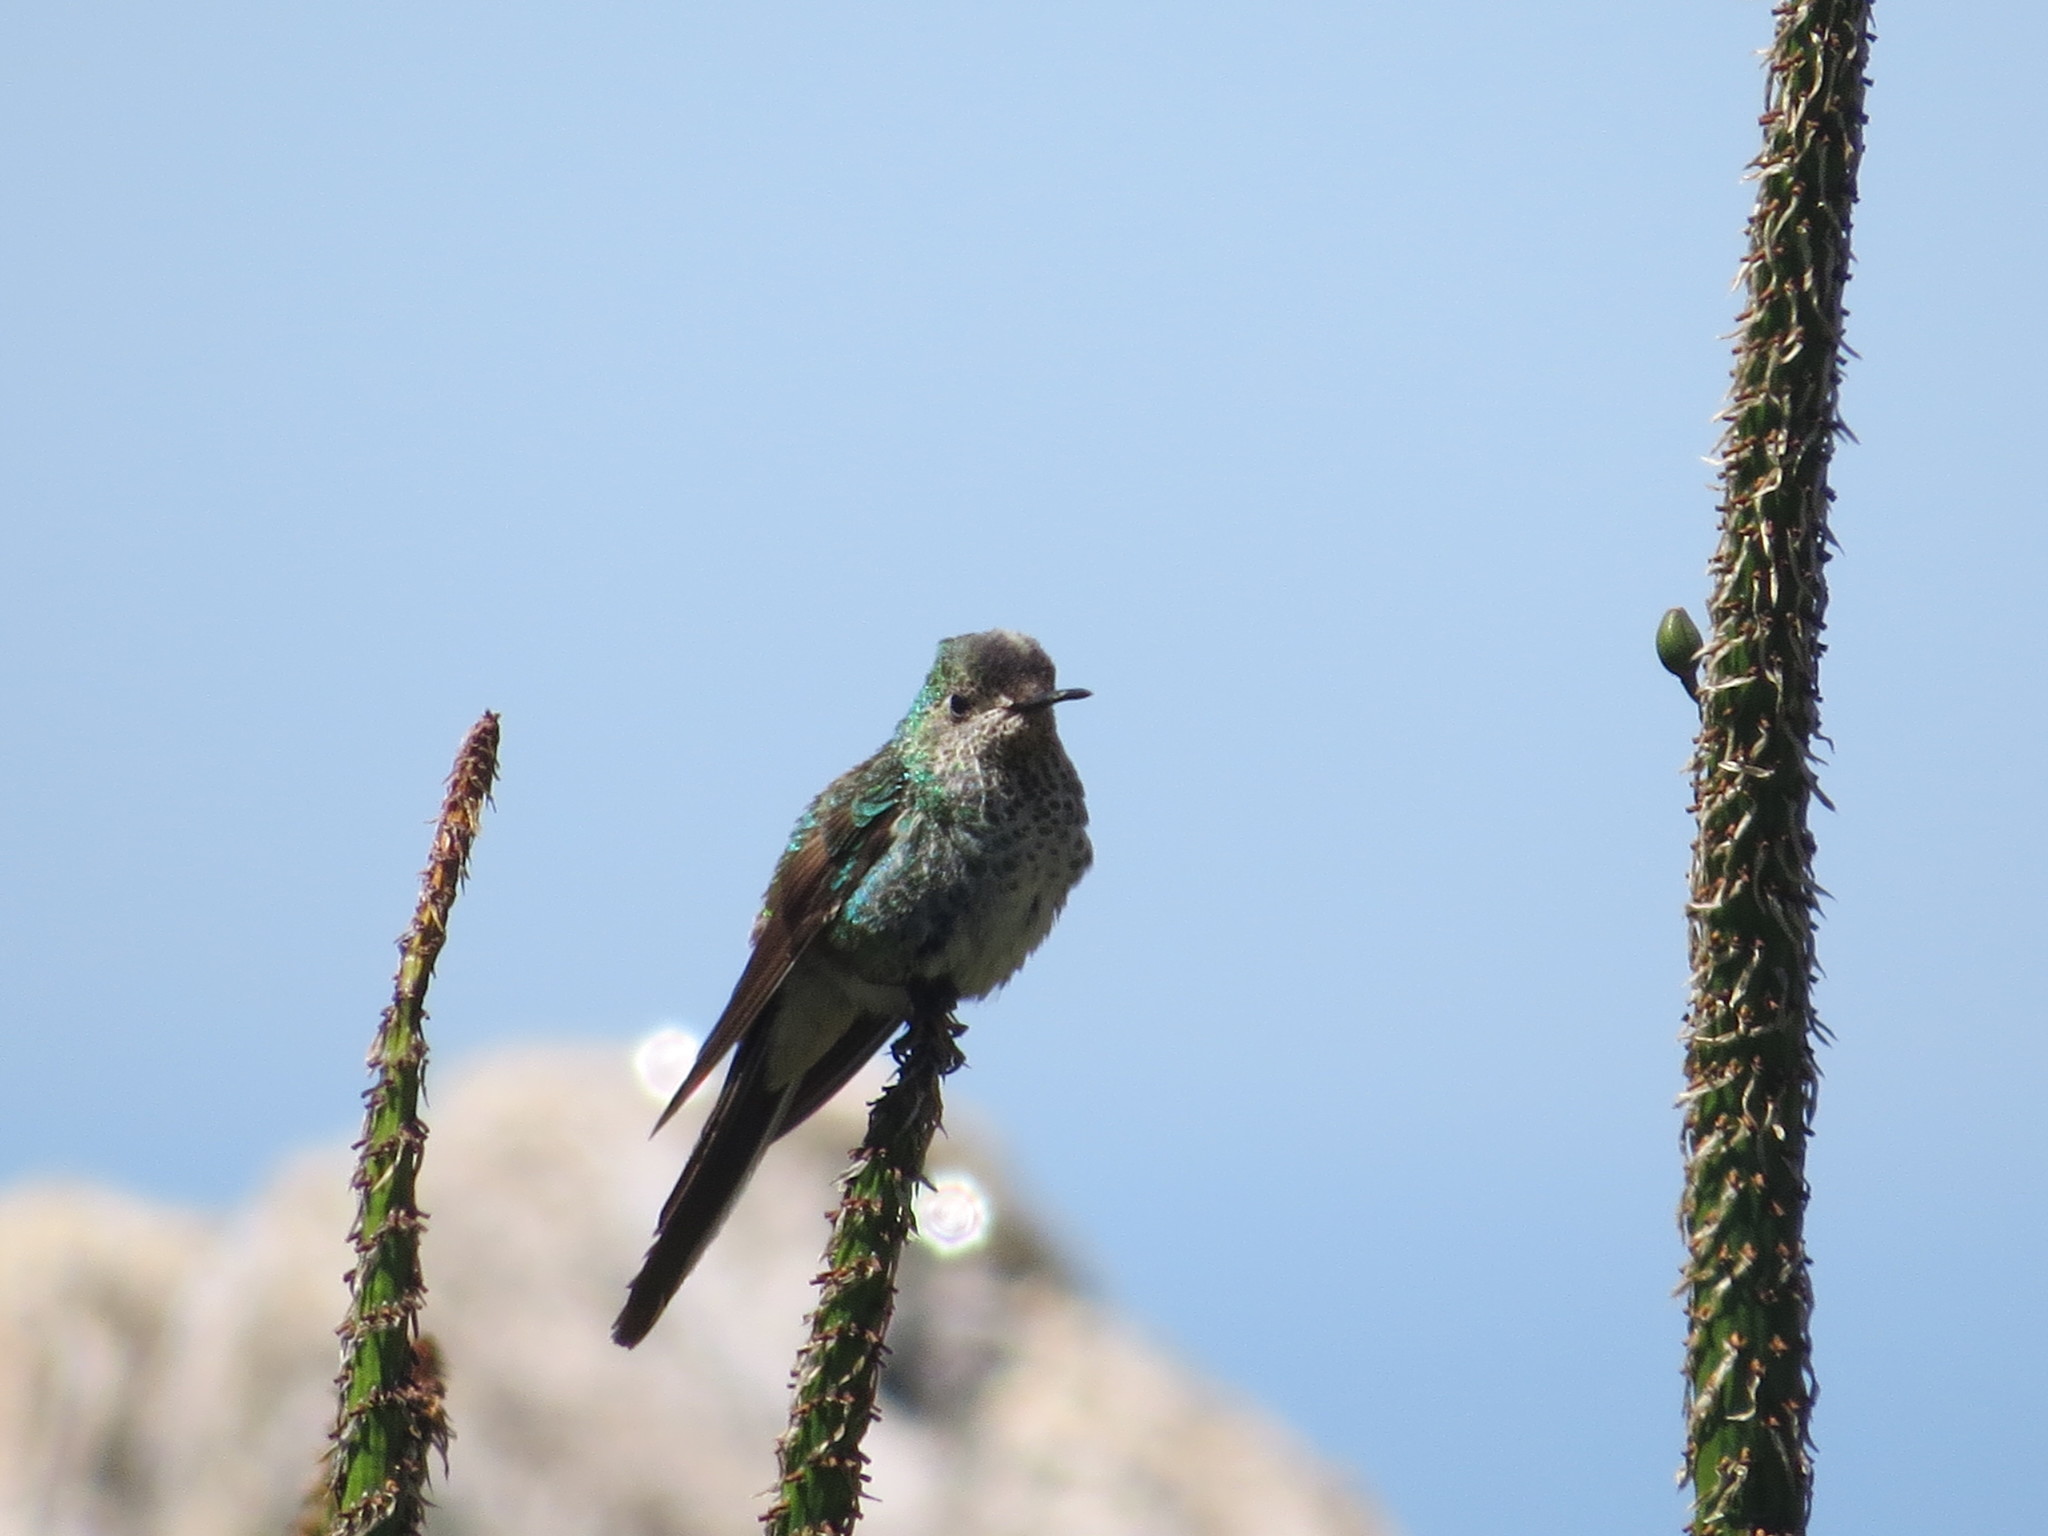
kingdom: Animalia
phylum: Chordata
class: Aves
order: Apodiformes
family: Trochilidae
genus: Sappho
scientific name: Sappho sparganurus
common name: Red-tailed comet
